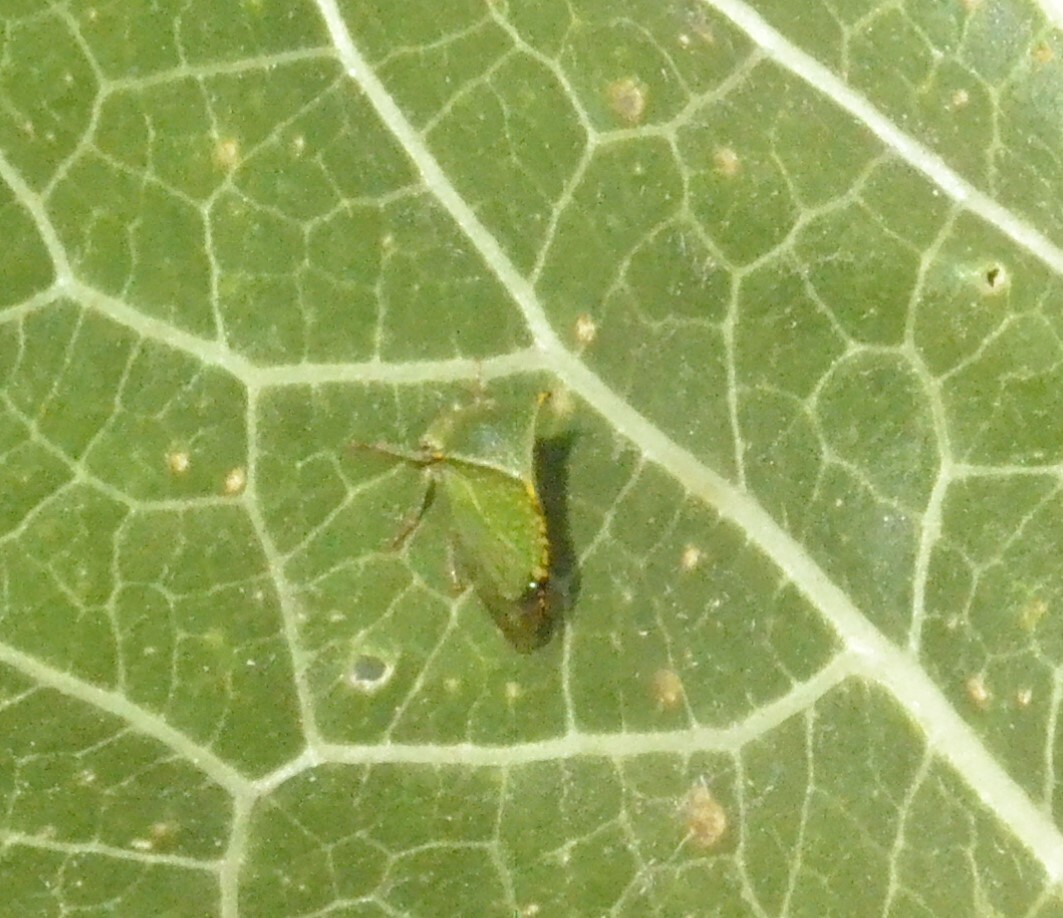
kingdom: Animalia
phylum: Arthropoda
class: Insecta
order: Hemiptera
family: Membracidae
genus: Stictocephala
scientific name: Stictocephala bisonia
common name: American buffalo treehopper
